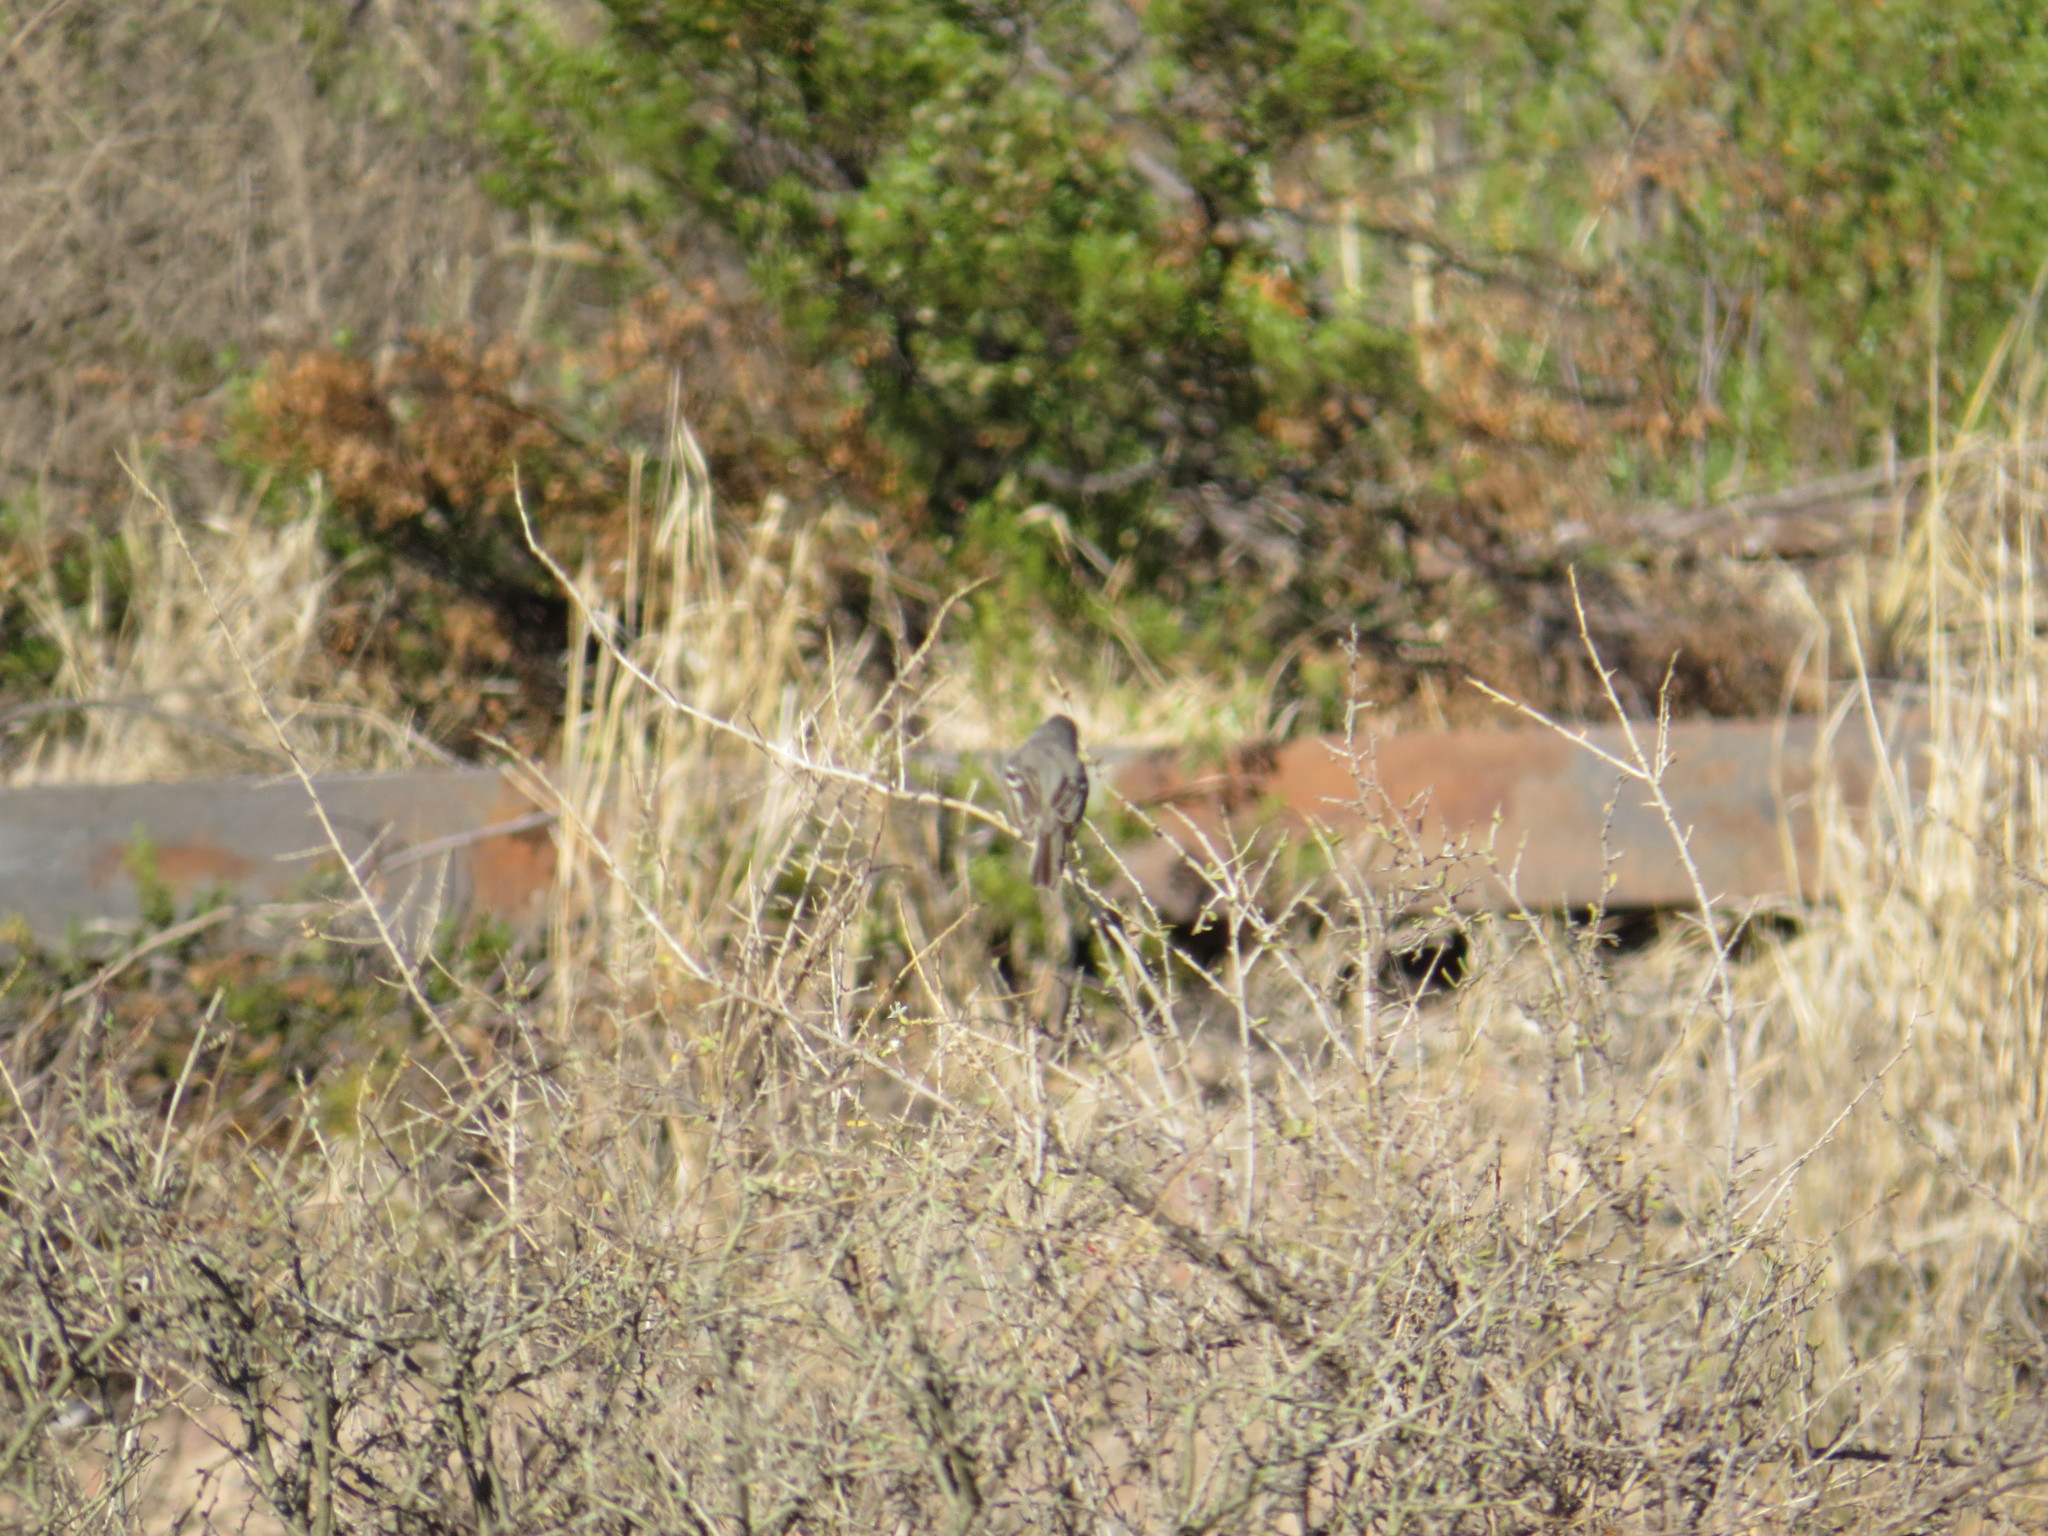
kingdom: Animalia
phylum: Chordata
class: Aves
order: Passeriformes
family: Tyrannidae
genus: Serpophaga
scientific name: Serpophaga subcristata
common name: White-crested tyrannulet
